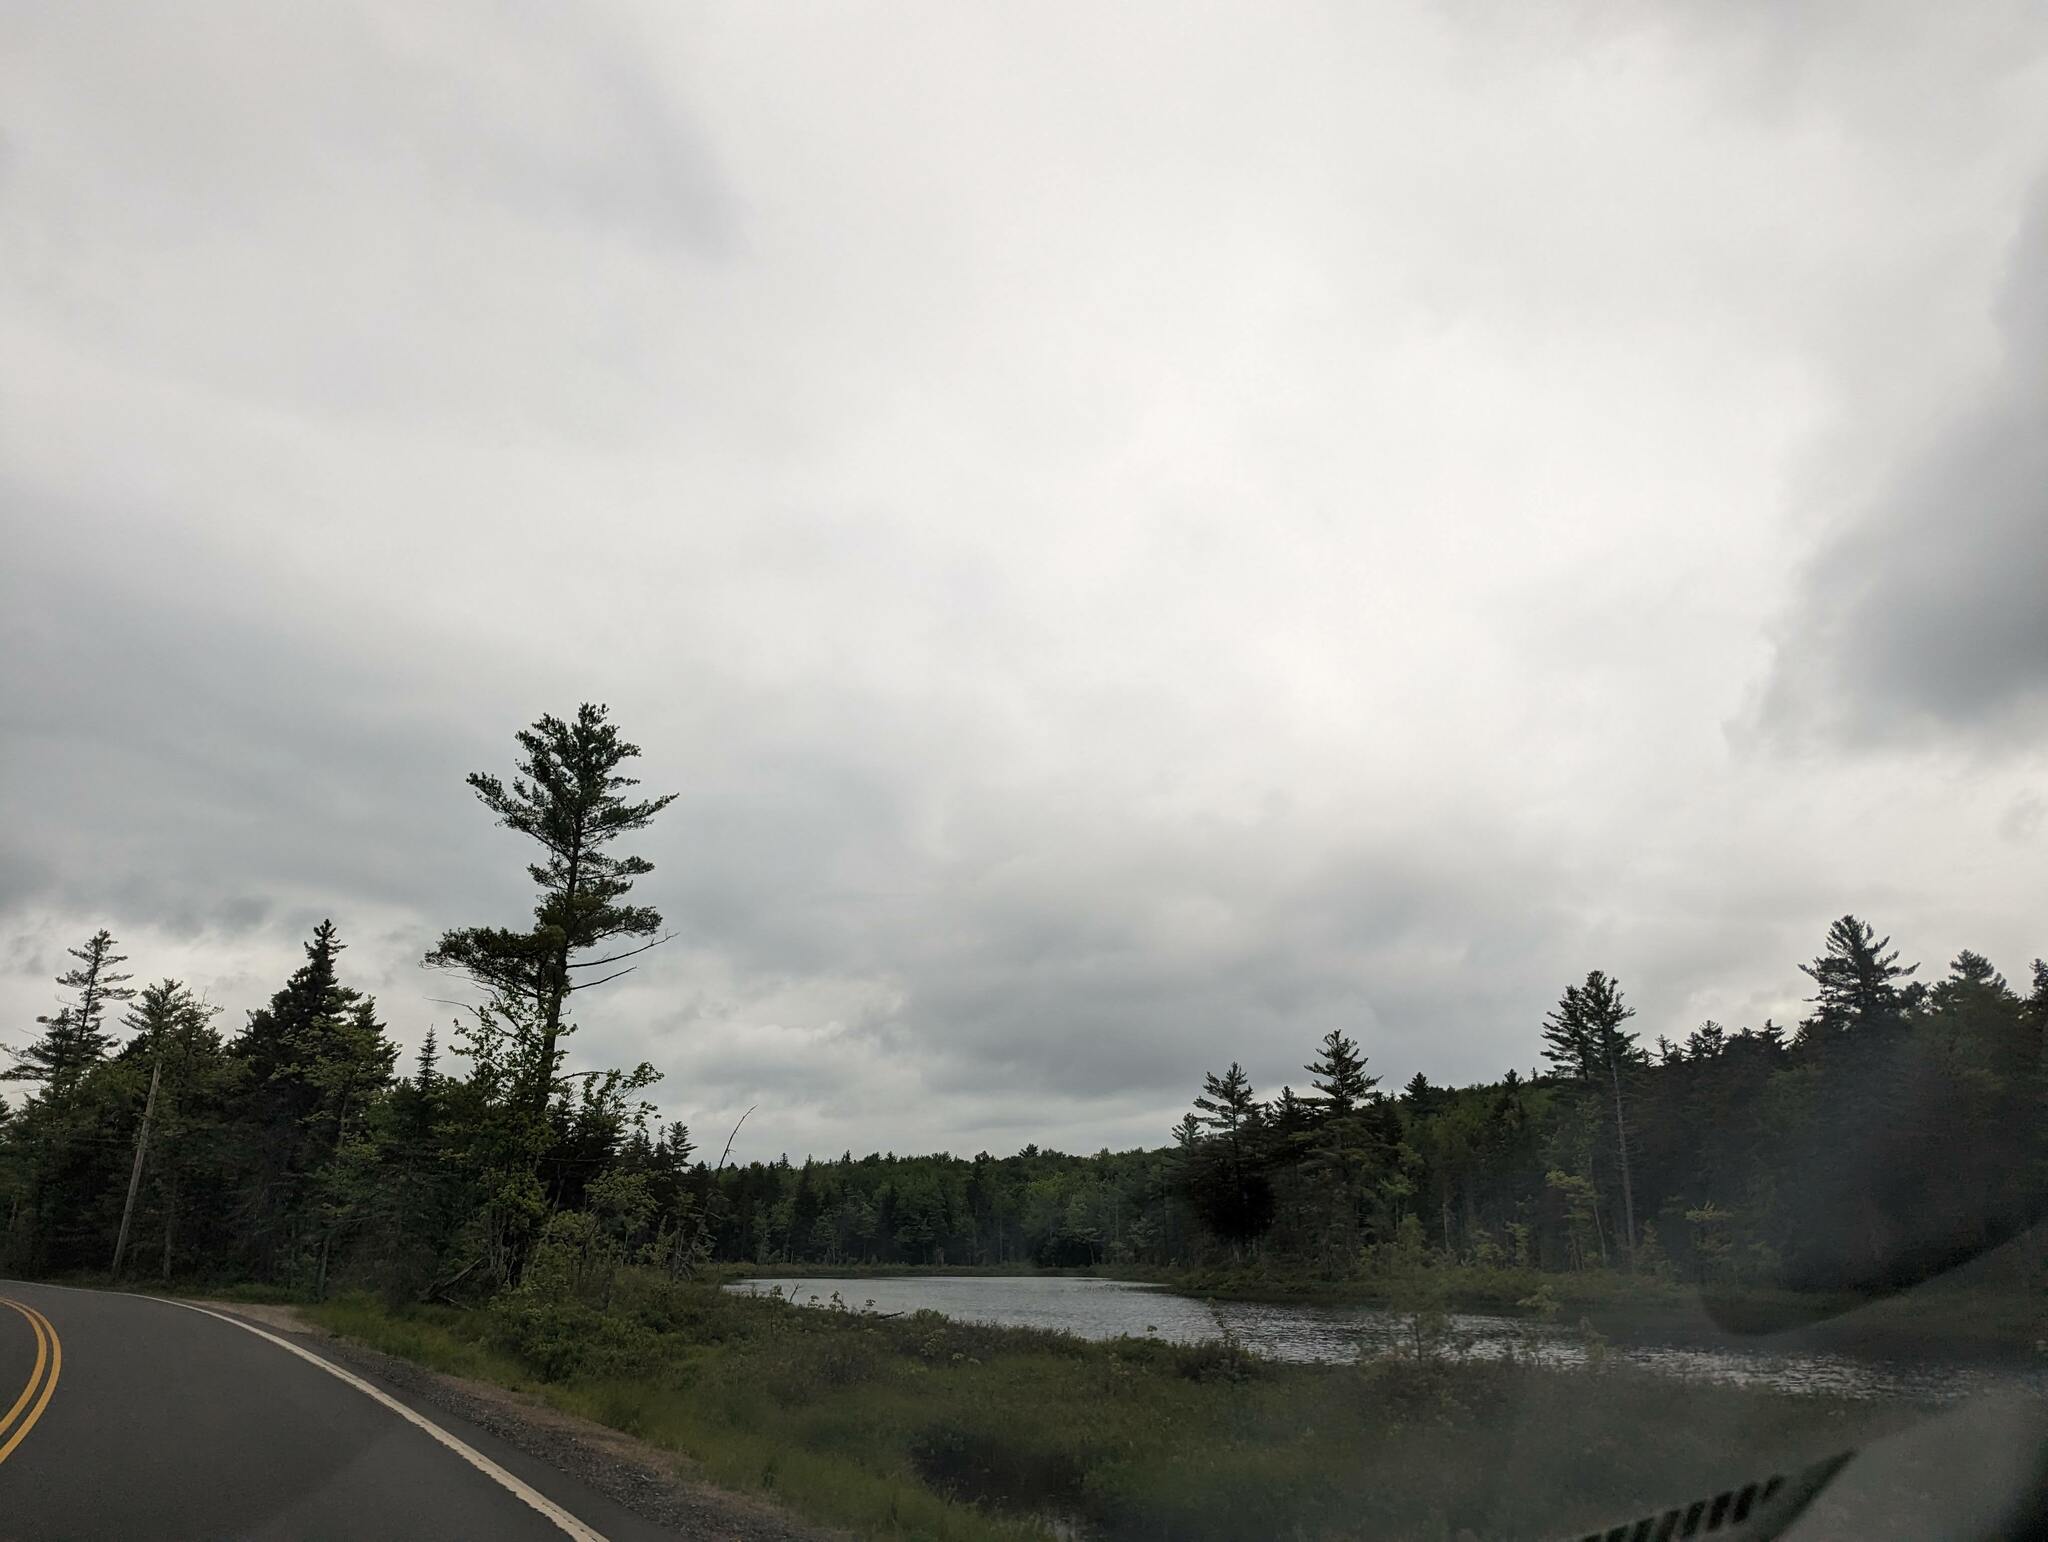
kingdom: Plantae
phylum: Tracheophyta
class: Pinopsida
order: Pinales
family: Pinaceae
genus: Pinus
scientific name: Pinus strobus
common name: Weymouth pine
